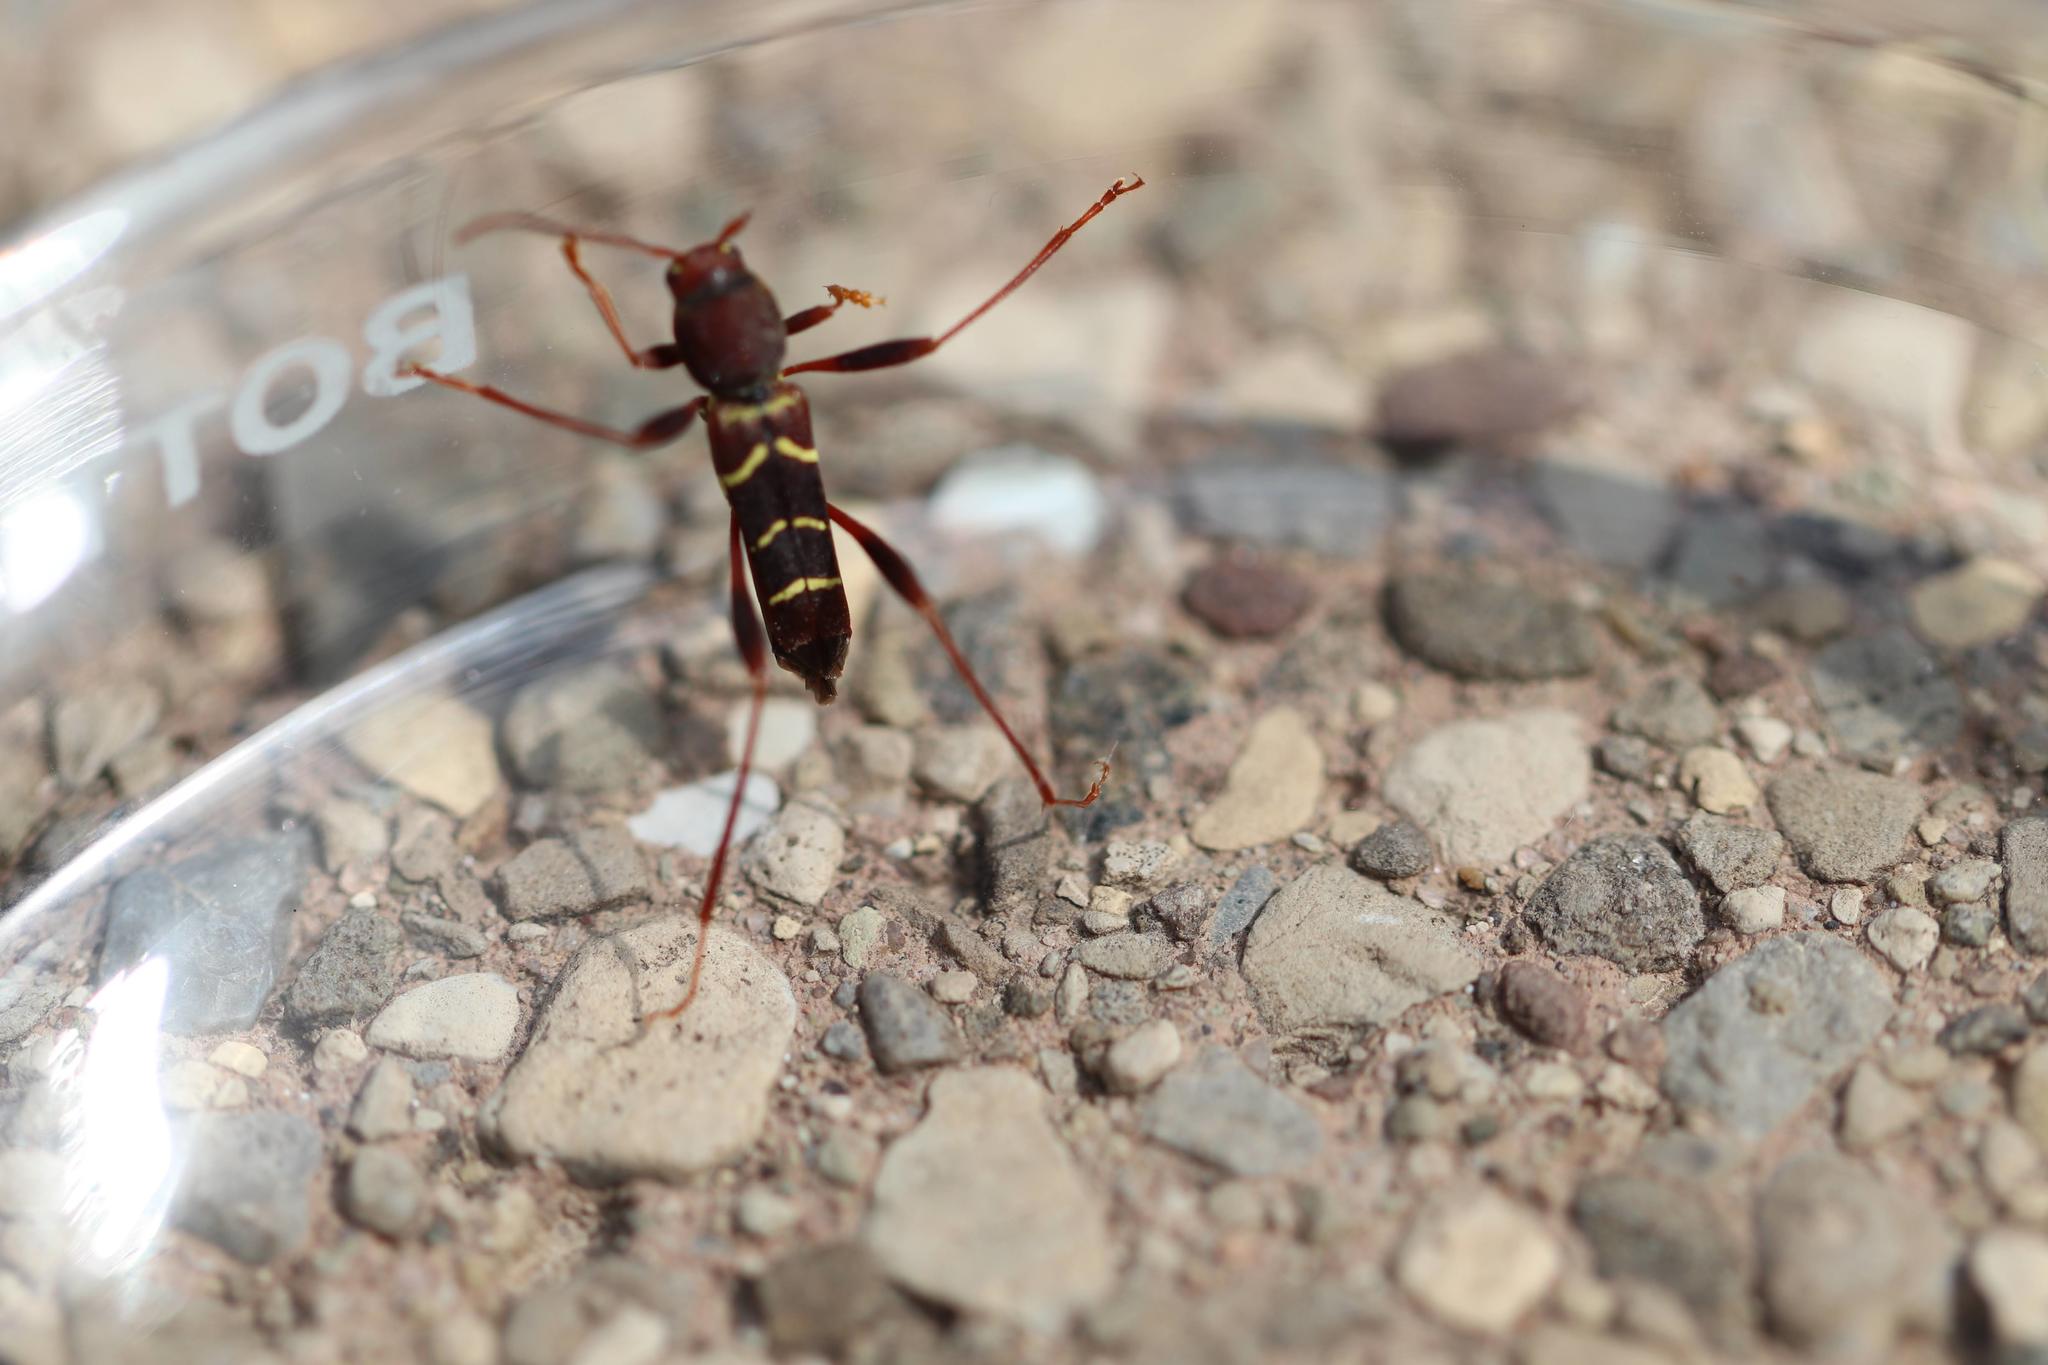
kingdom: Animalia
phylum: Arthropoda
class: Insecta
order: Coleoptera
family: Cerambycidae
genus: Neoclytus
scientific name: Neoclytus acuminatus
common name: Read-headed ash borer
